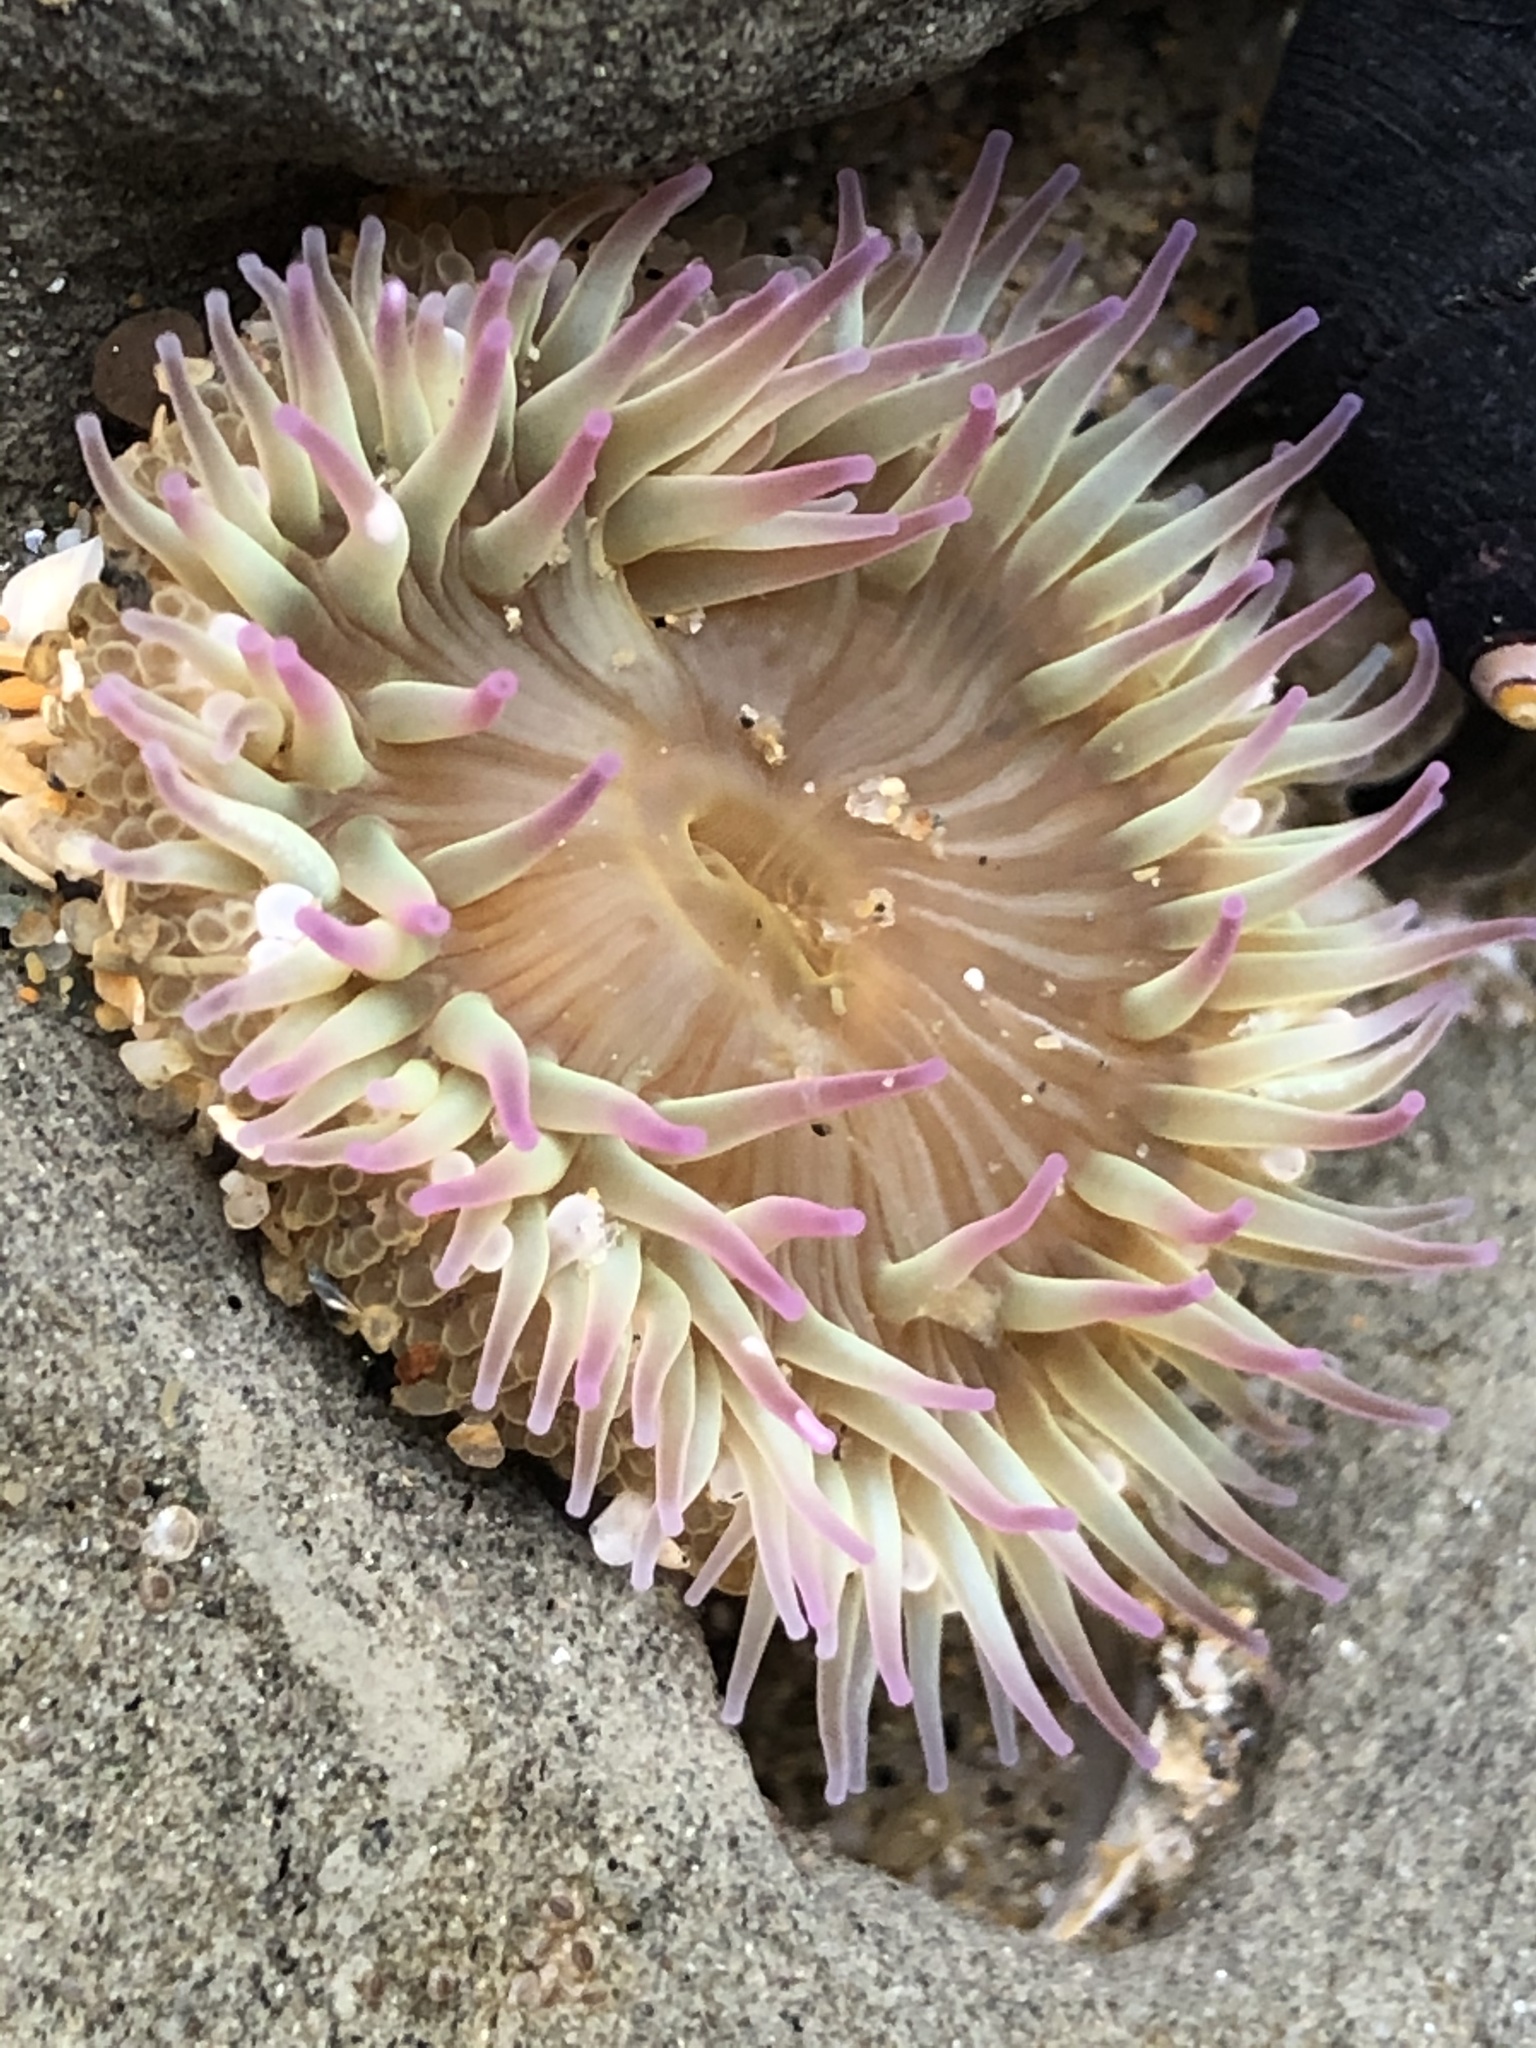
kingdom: Animalia
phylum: Cnidaria
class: Anthozoa
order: Actiniaria
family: Actiniidae
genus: Anthopleura
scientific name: Anthopleura elegantissima
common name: Clonal anemone
